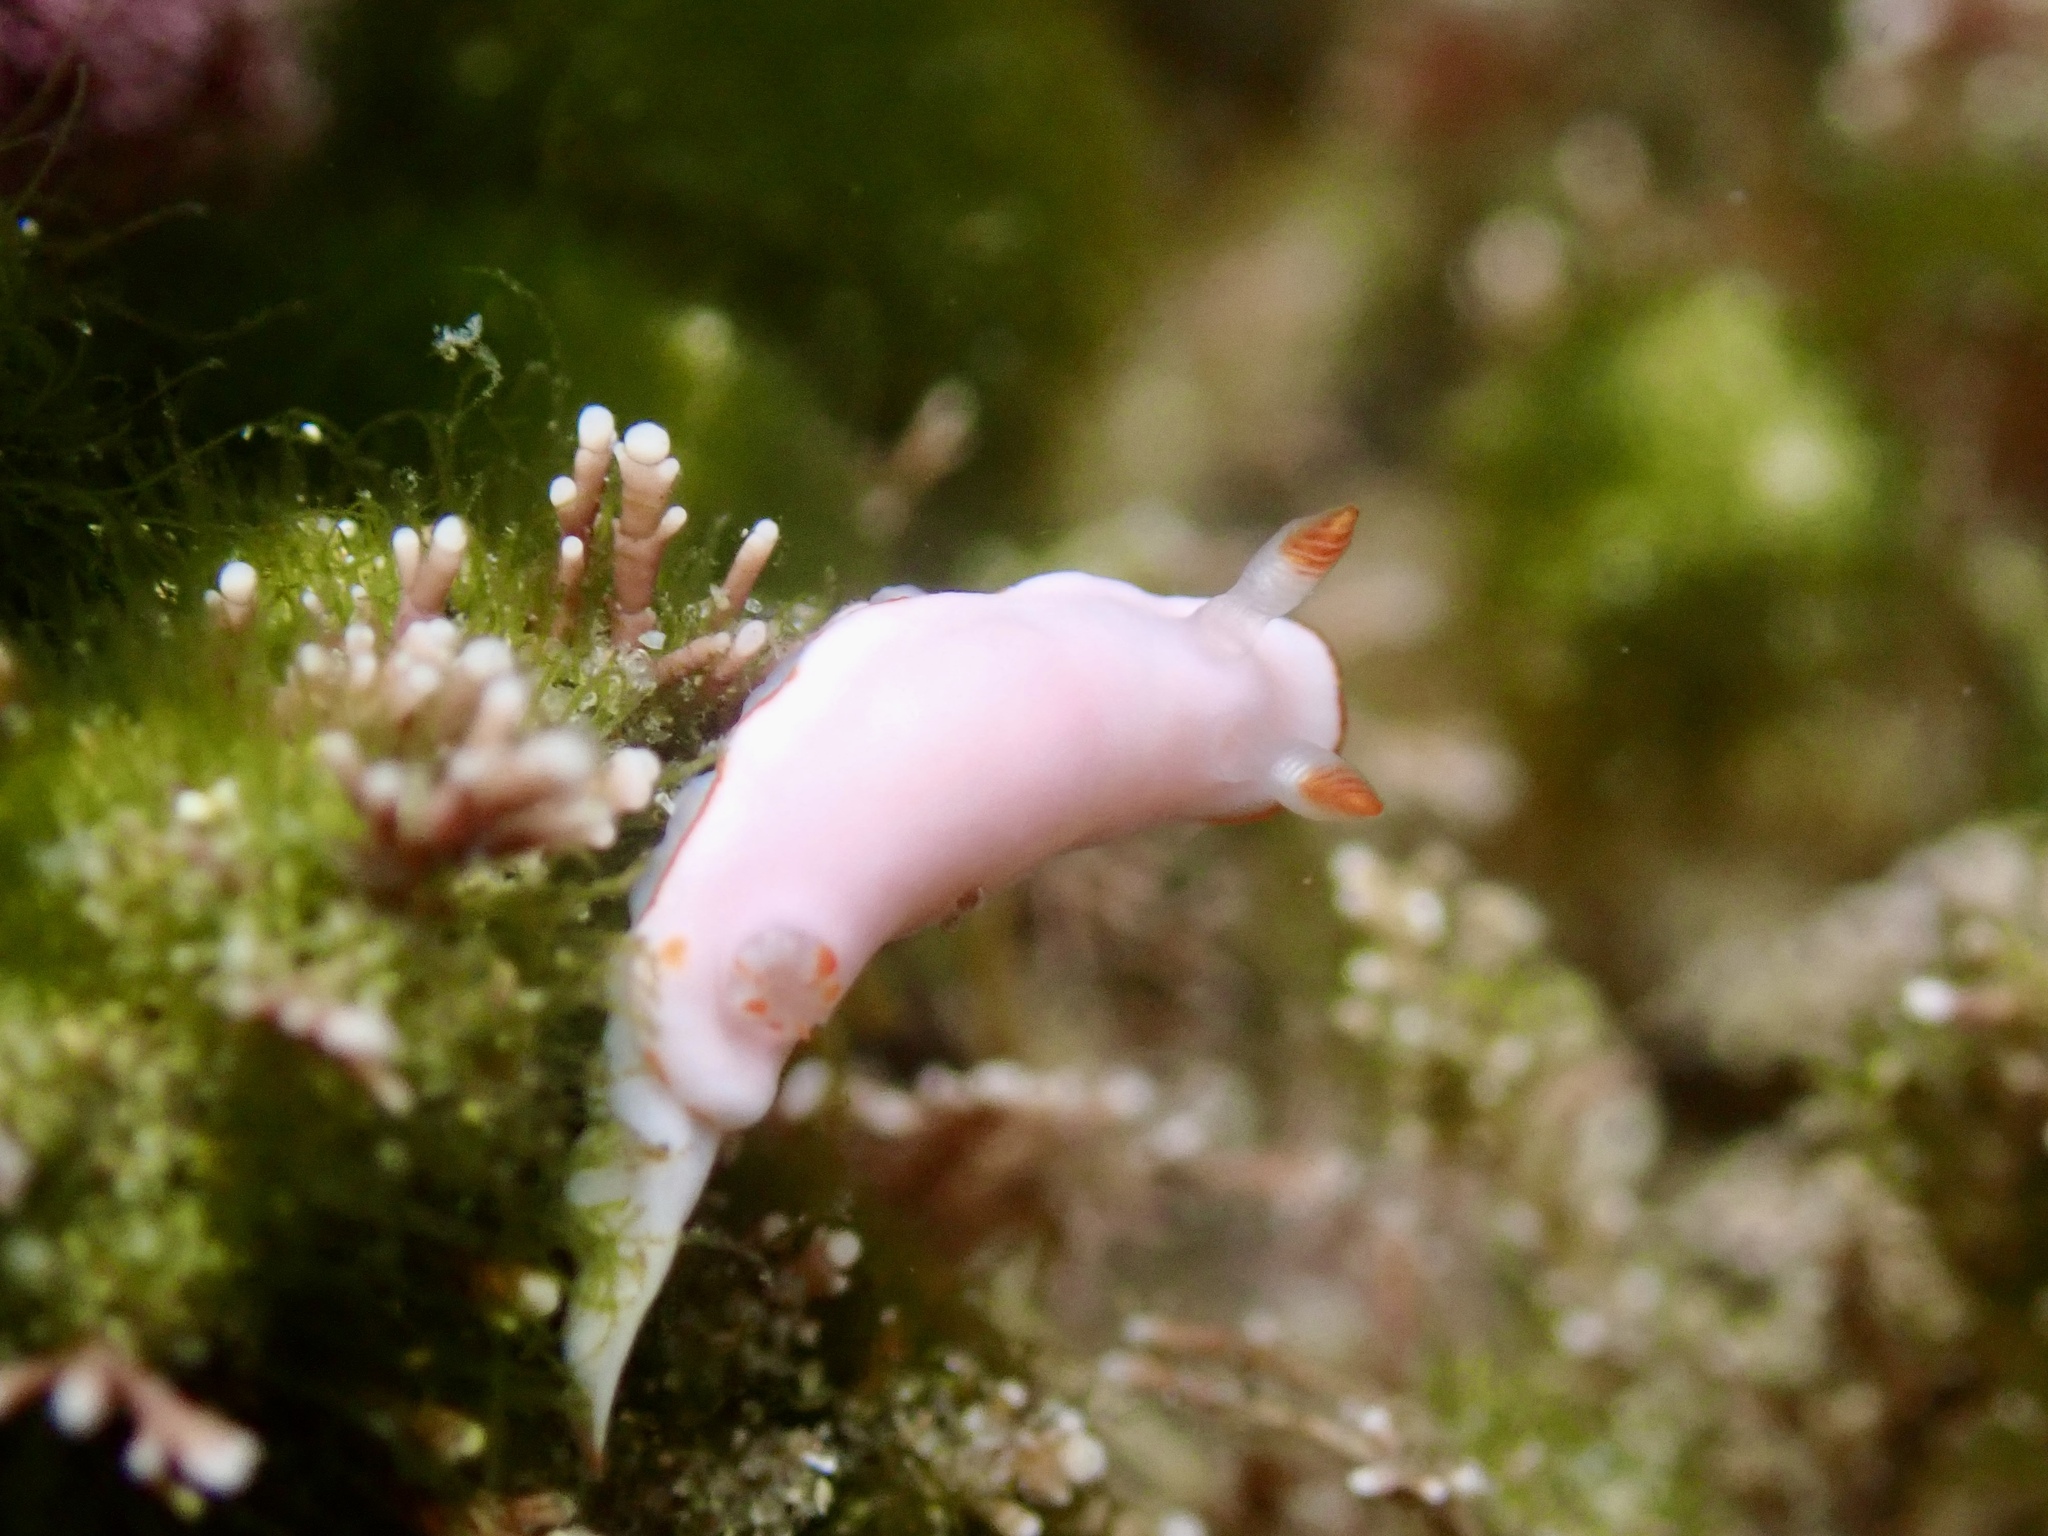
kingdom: Animalia
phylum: Mollusca
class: Gastropoda
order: Nudibranchia
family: Chromodorididae
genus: Verconia
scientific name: Verconia simplex
